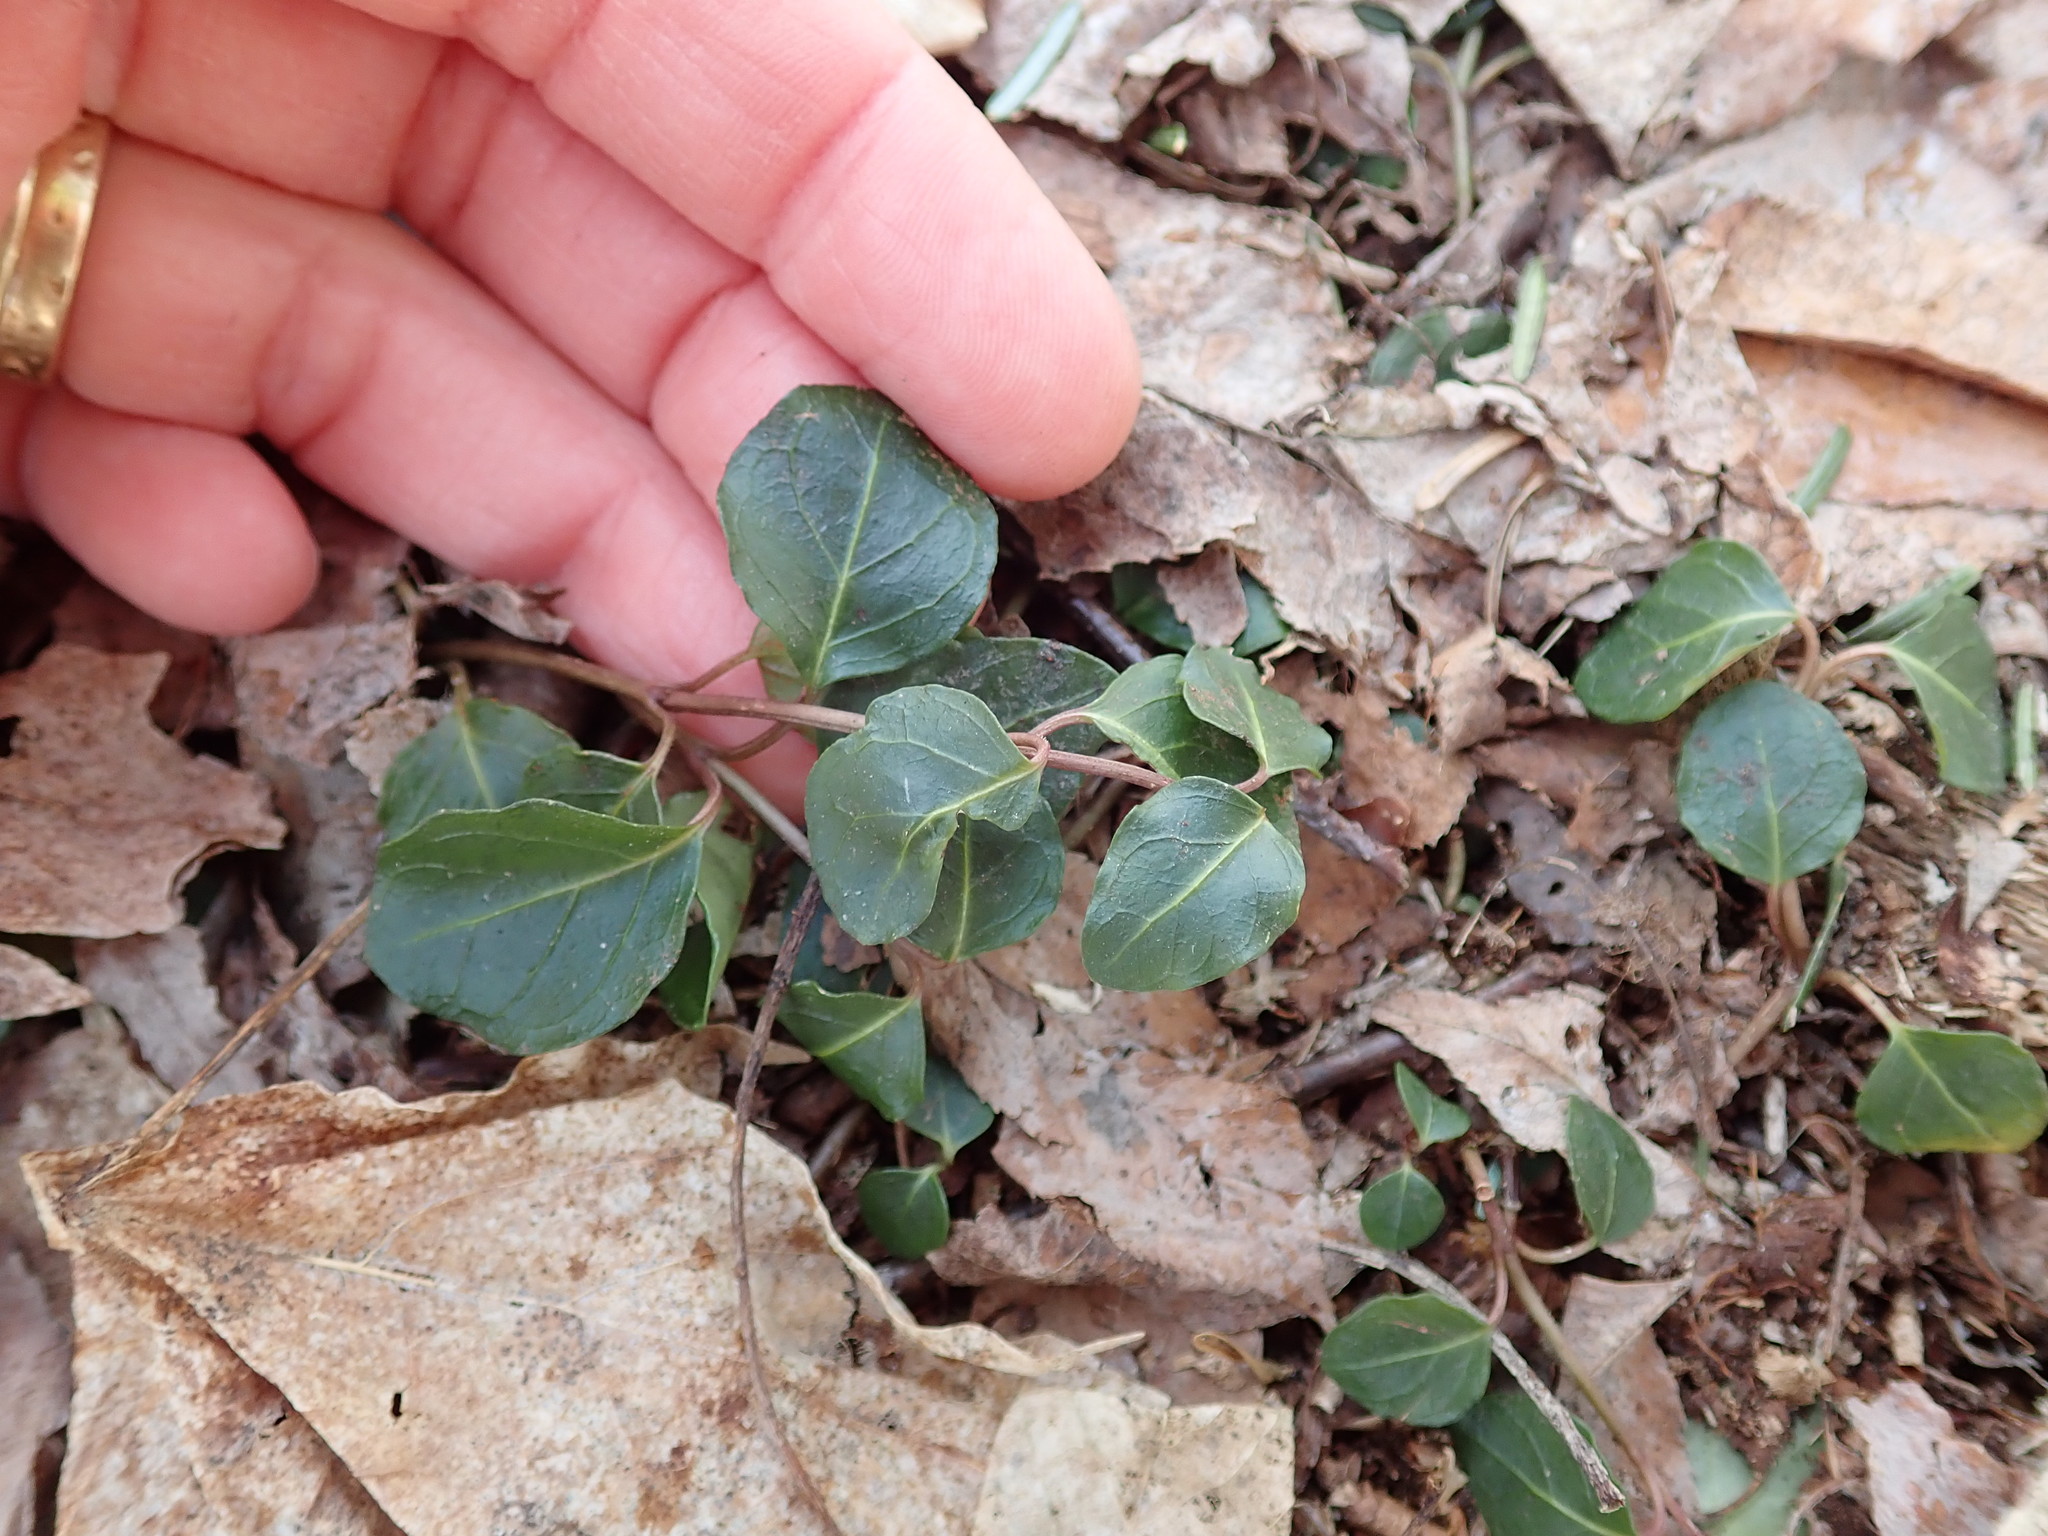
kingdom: Plantae
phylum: Tracheophyta
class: Magnoliopsida
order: Gentianales
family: Rubiaceae
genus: Mitchella
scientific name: Mitchella repens
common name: Partridge-berry
